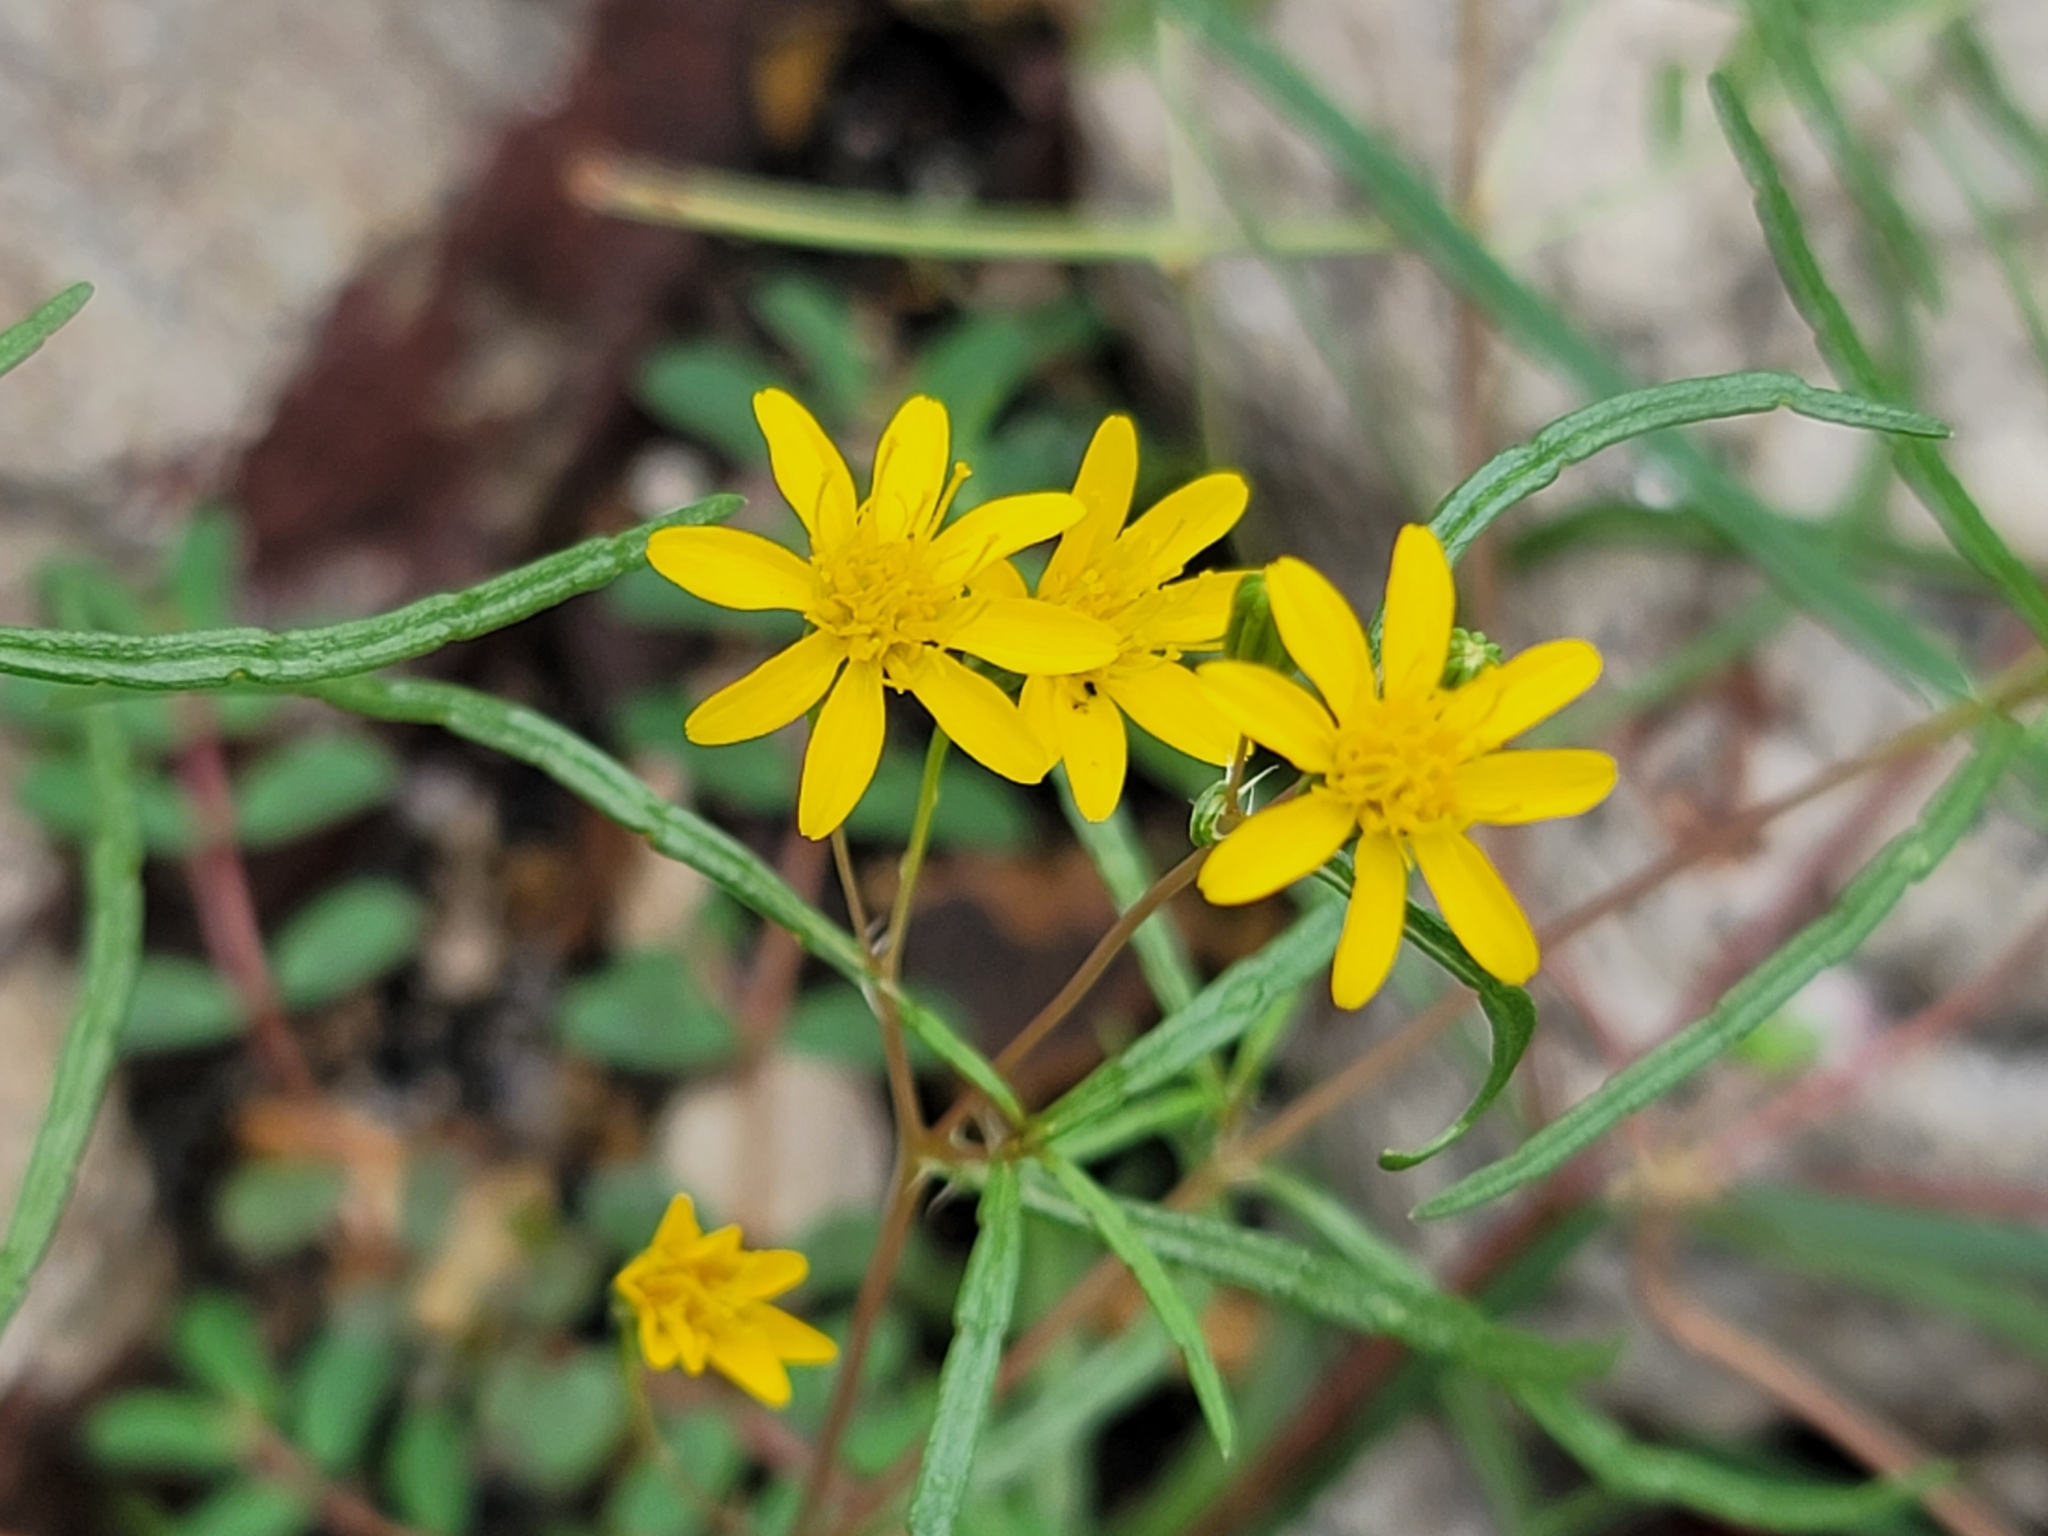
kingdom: Plantae
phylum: Tracheophyta
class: Magnoliopsida
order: Asterales
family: Asteraceae
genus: Pectis
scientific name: Pectis papposa
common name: Many-bristle chinchweed
